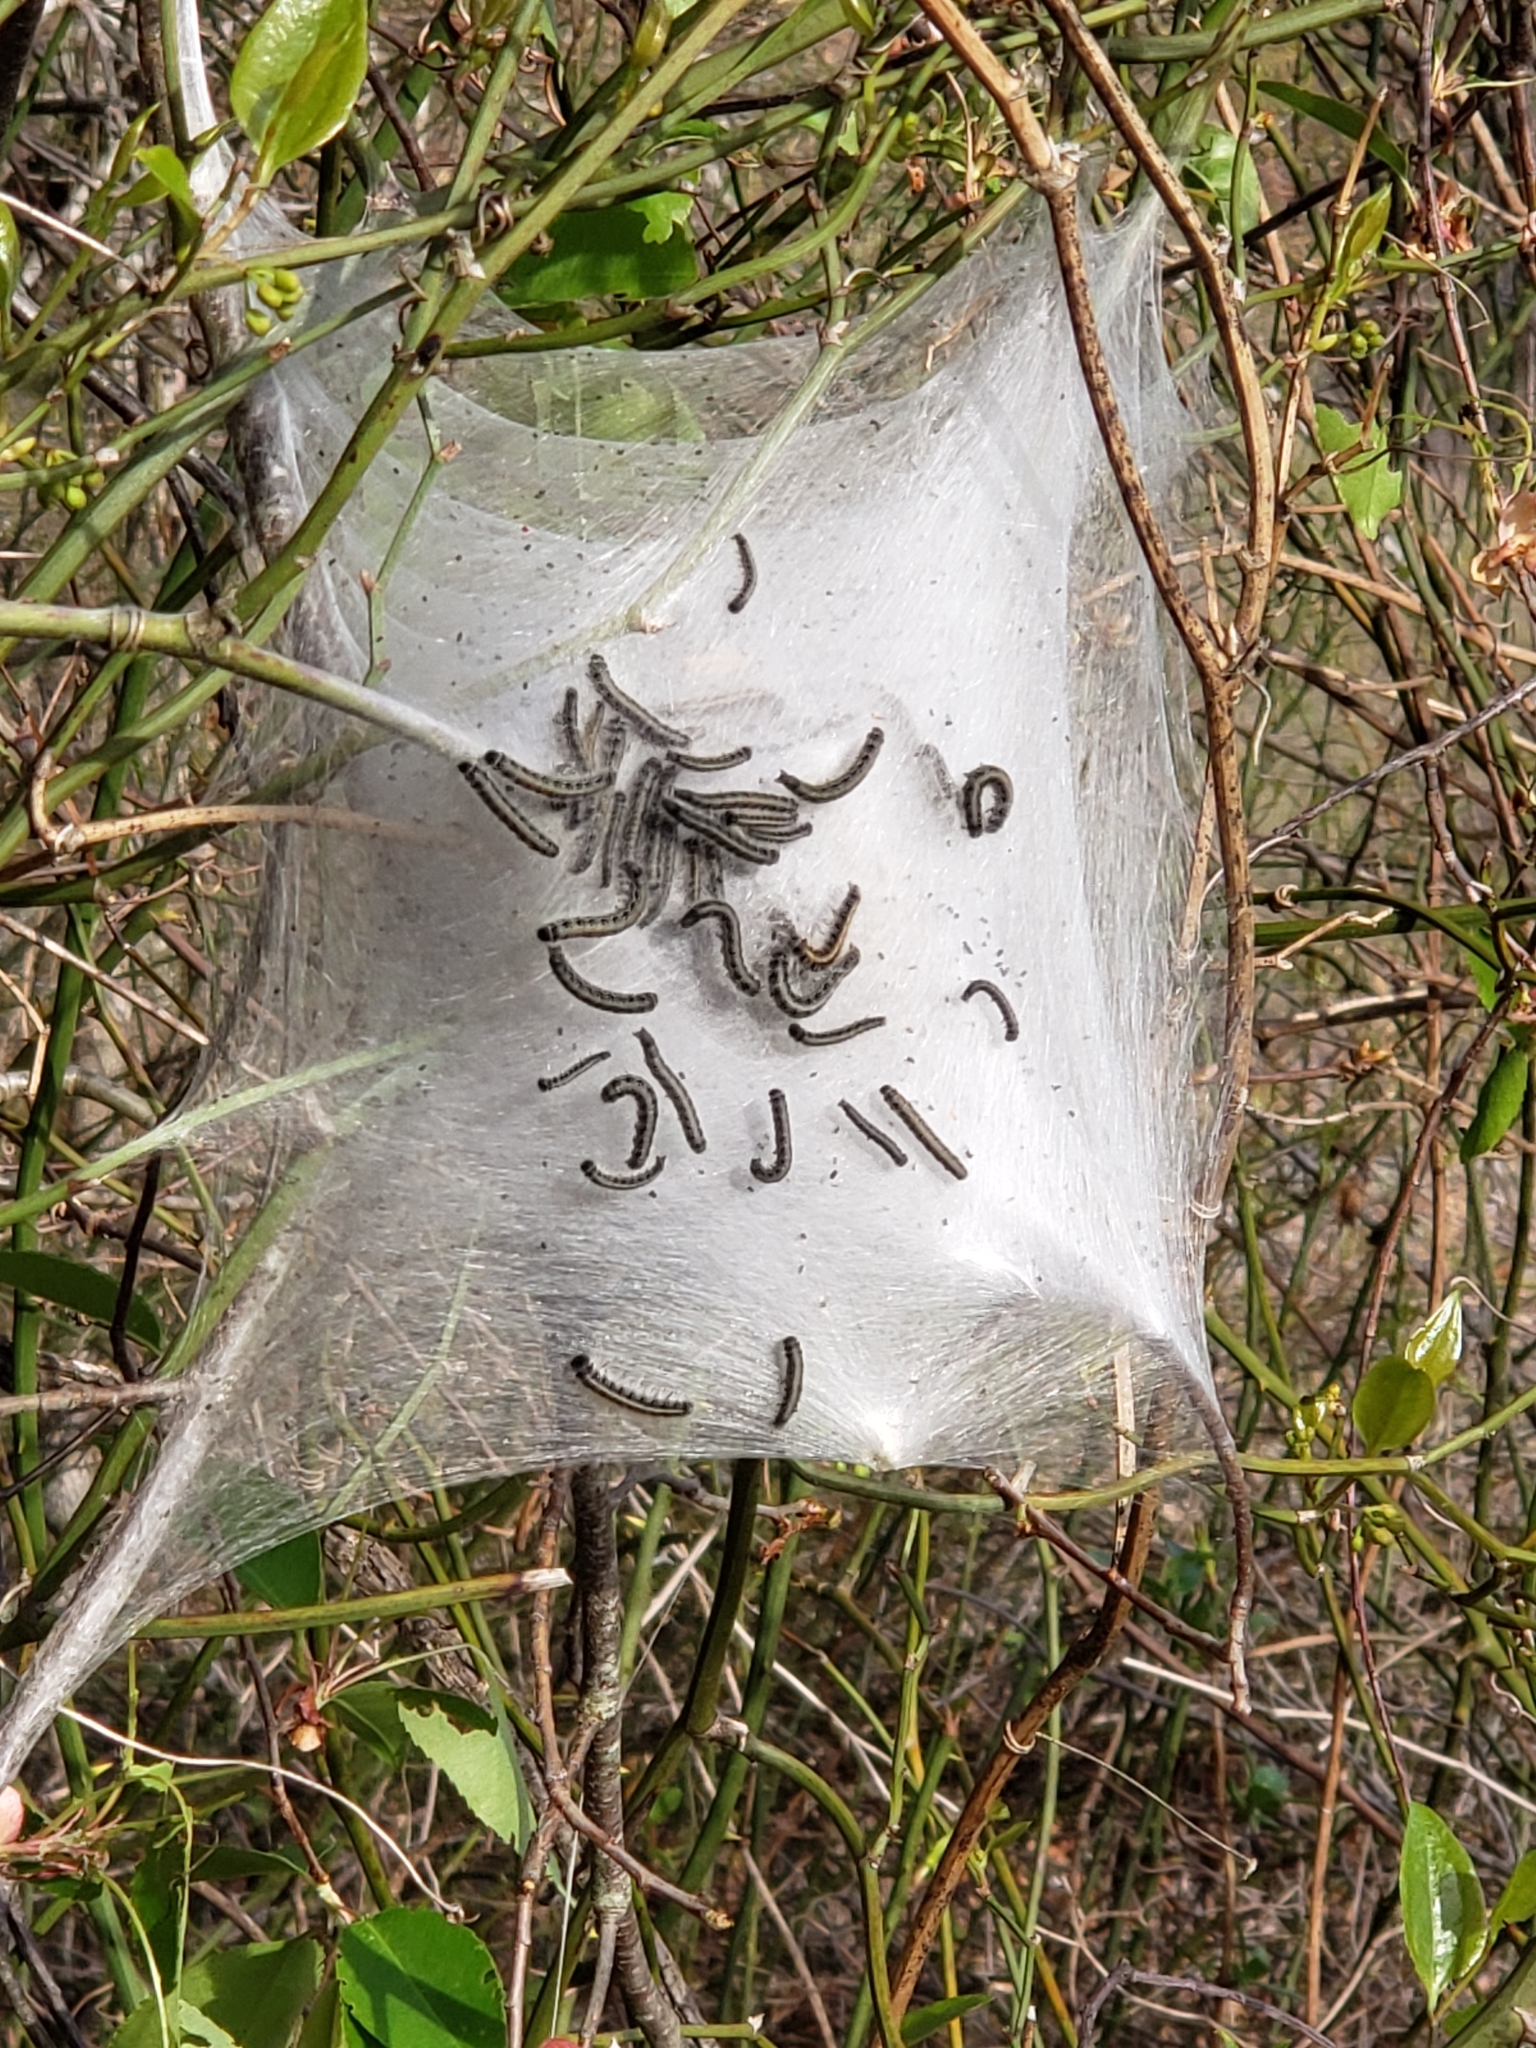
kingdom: Animalia
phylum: Arthropoda
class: Insecta
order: Lepidoptera
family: Lasiocampidae
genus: Malacosoma
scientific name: Malacosoma americana
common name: Eastern tent caterpillar moth
